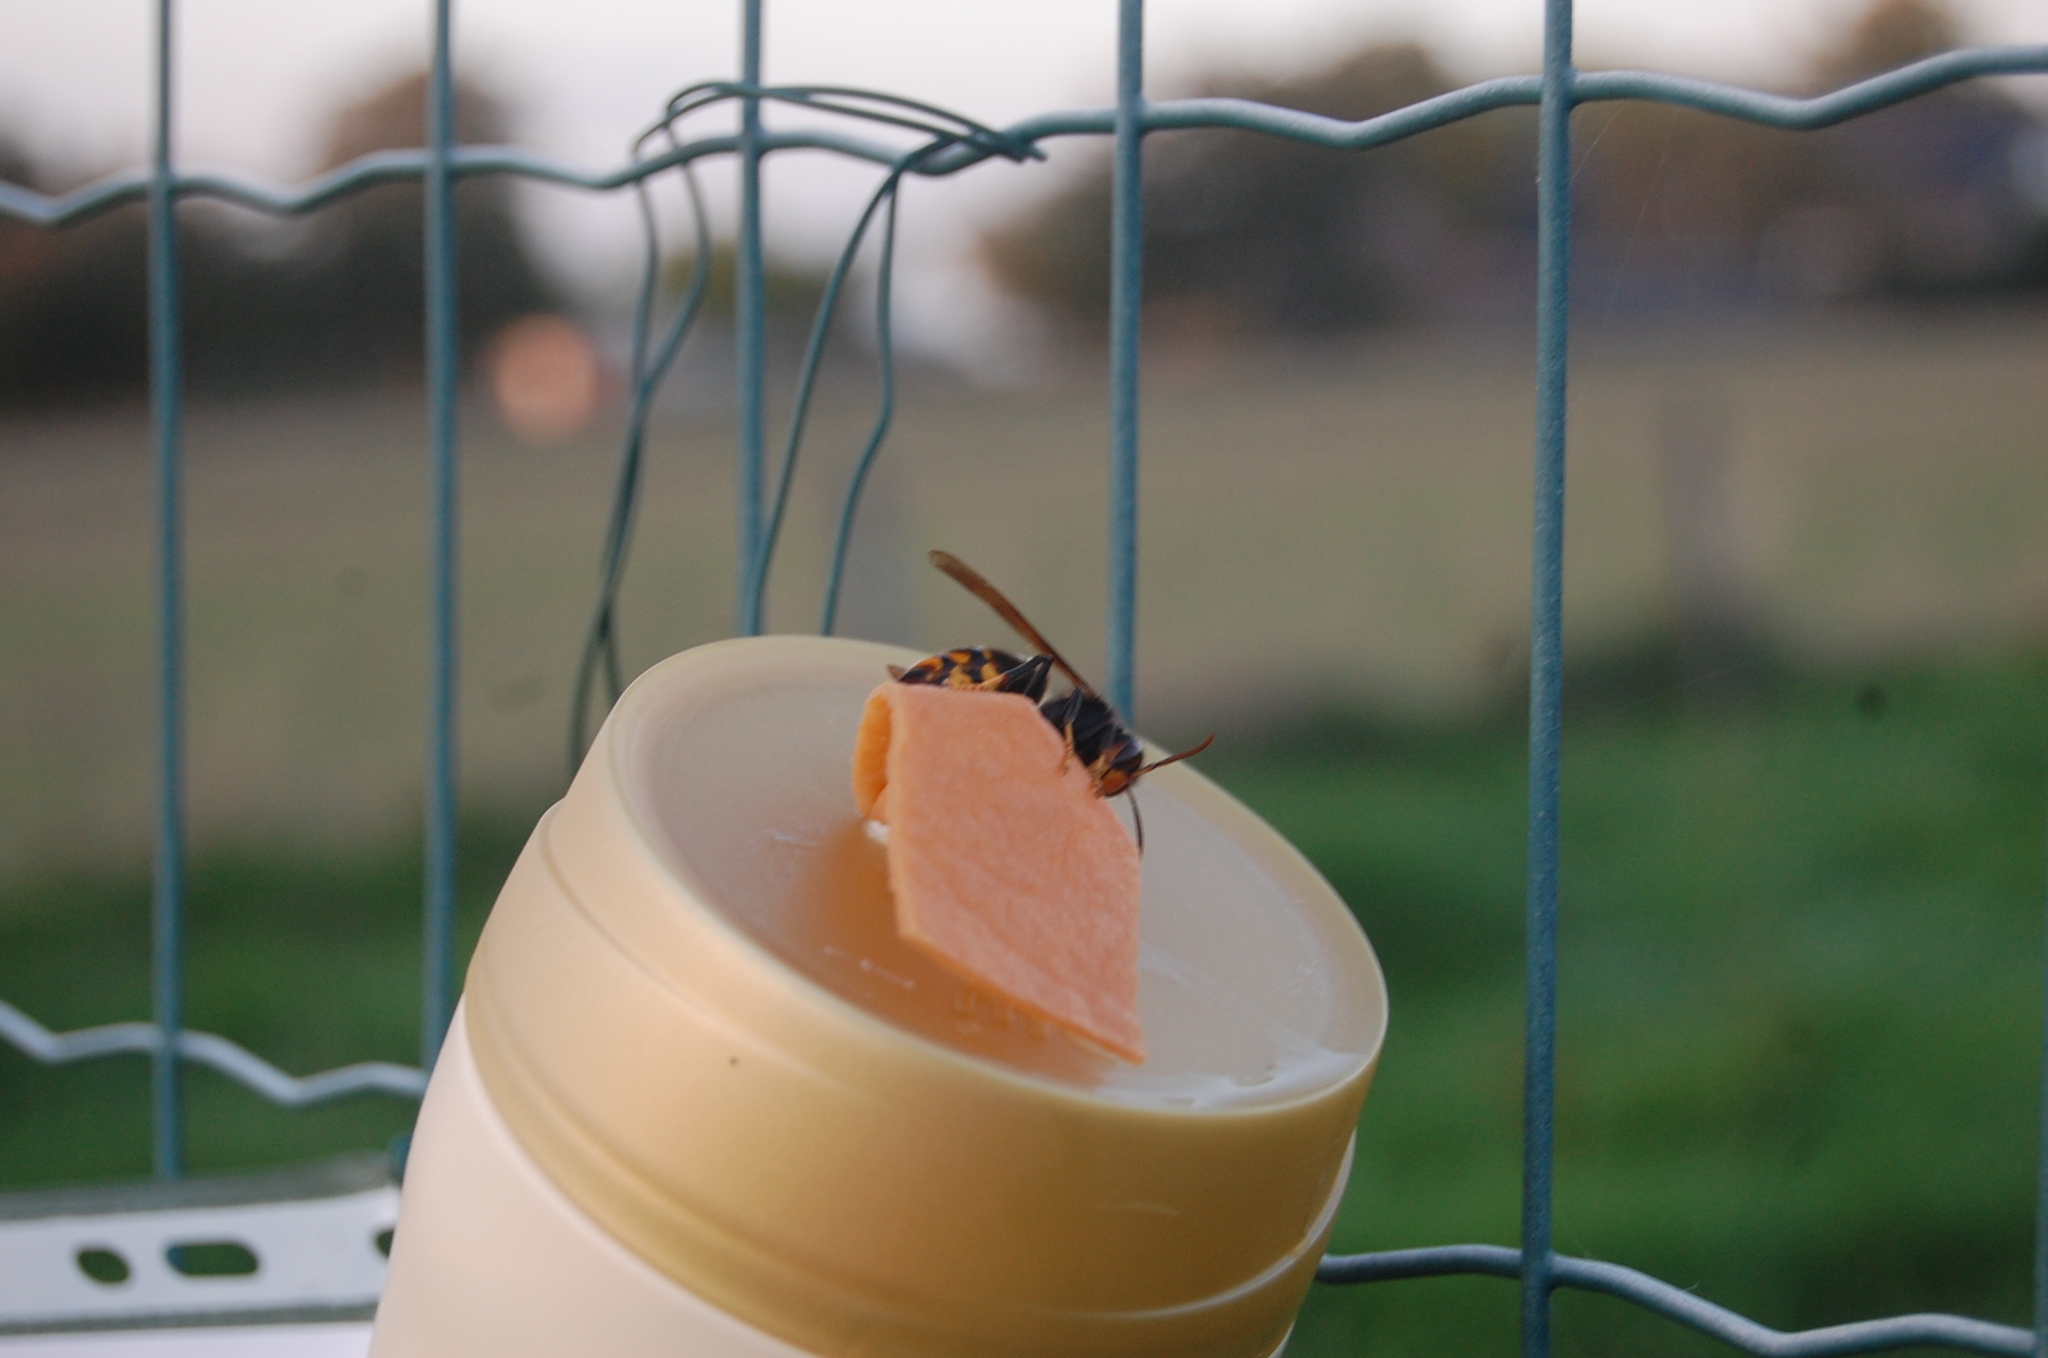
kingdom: Animalia
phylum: Arthropoda
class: Insecta
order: Hymenoptera
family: Vespidae
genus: Vespa
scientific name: Vespa velutina
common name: Asian hornet
